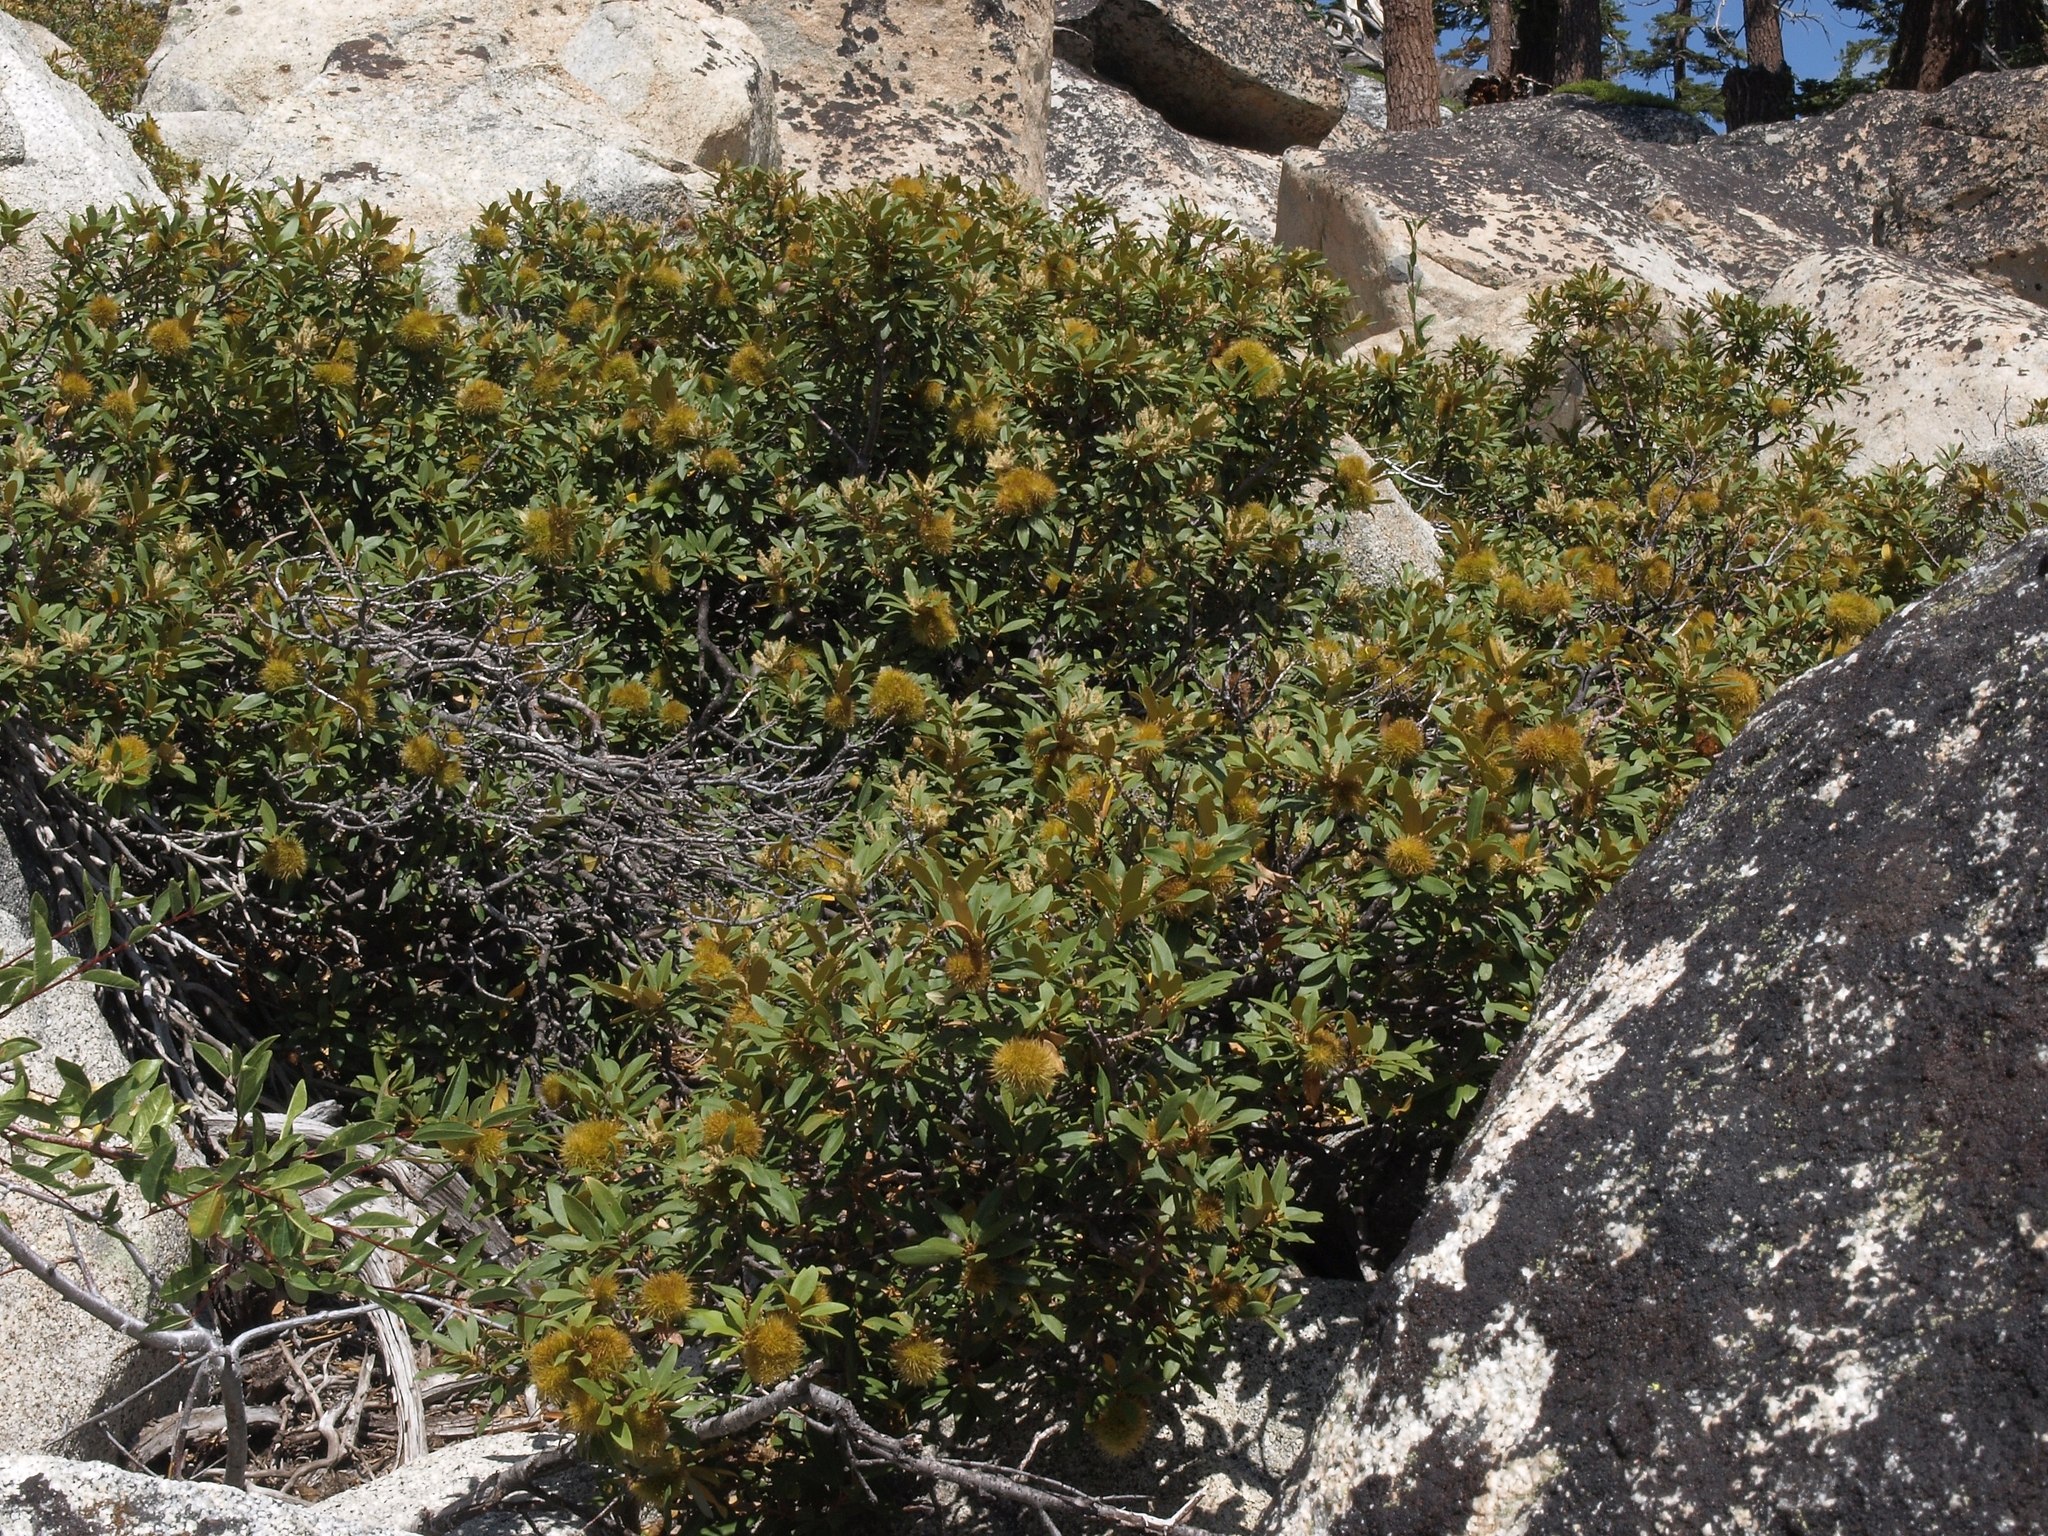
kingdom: Plantae
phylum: Tracheophyta
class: Magnoliopsida
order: Fagales
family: Fagaceae
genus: Chrysolepis
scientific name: Chrysolepis sempervirens
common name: Bush chinquapin
